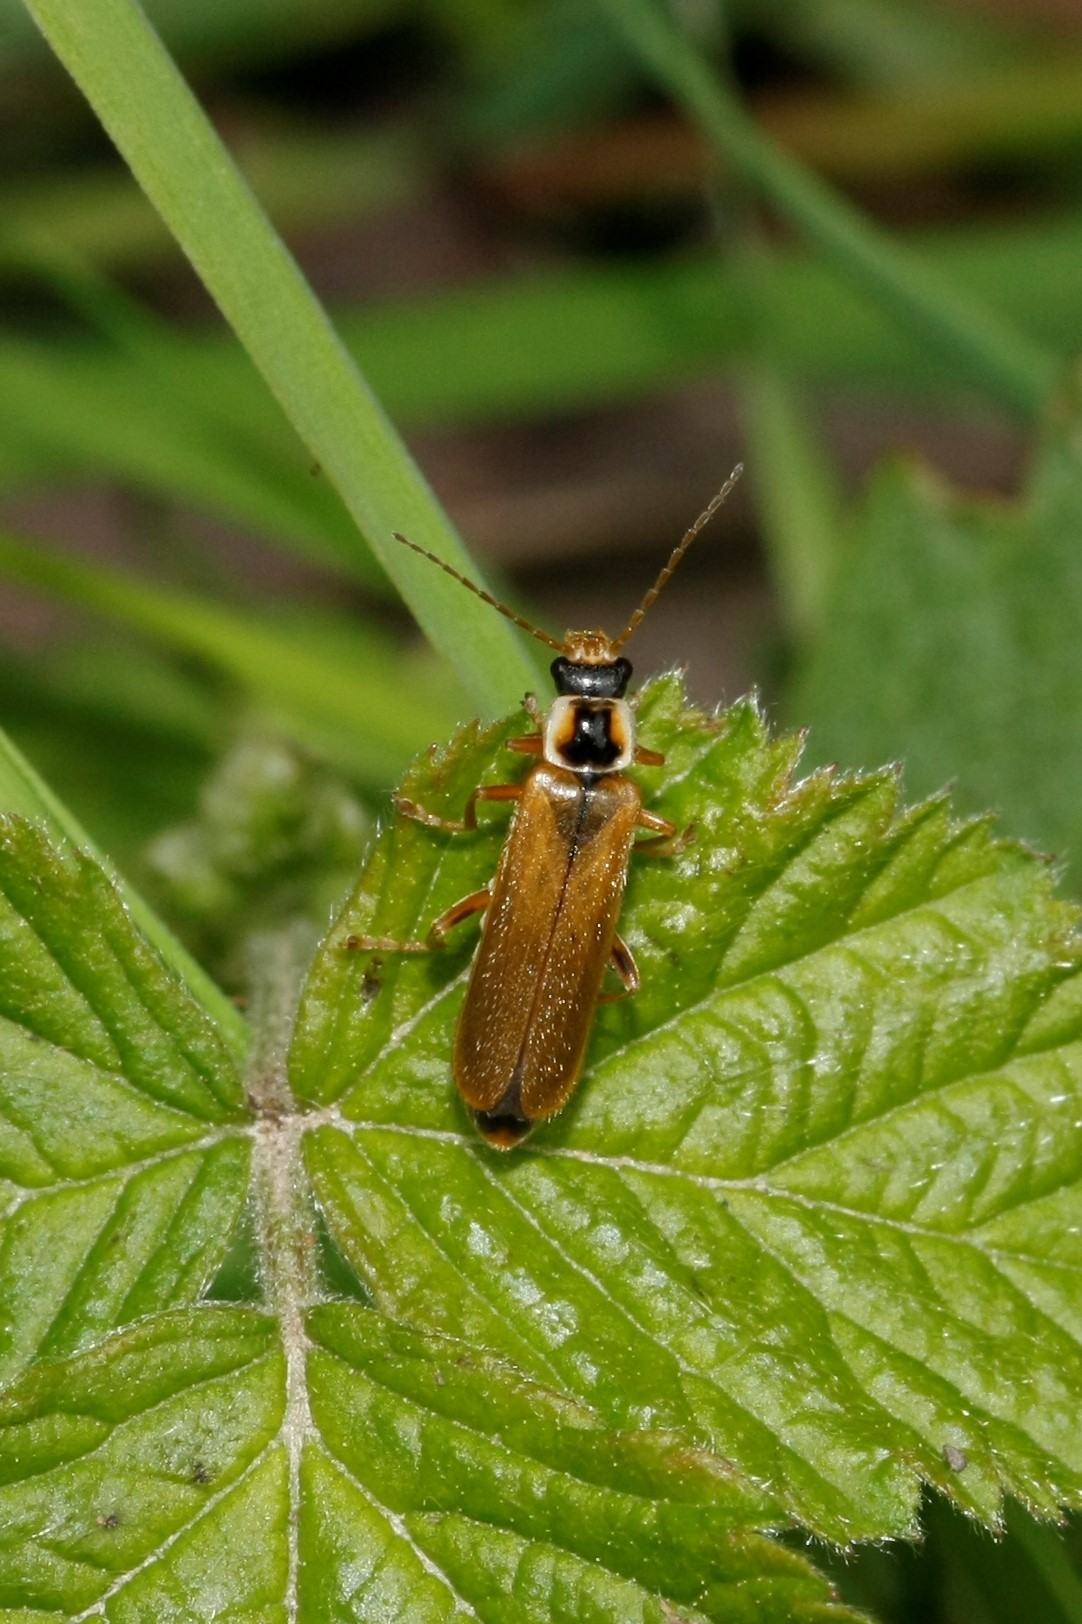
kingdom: Animalia
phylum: Arthropoda
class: Insecta
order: Coleoptera
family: Cantharidae
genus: Cantharis
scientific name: Cantharis decipiens
